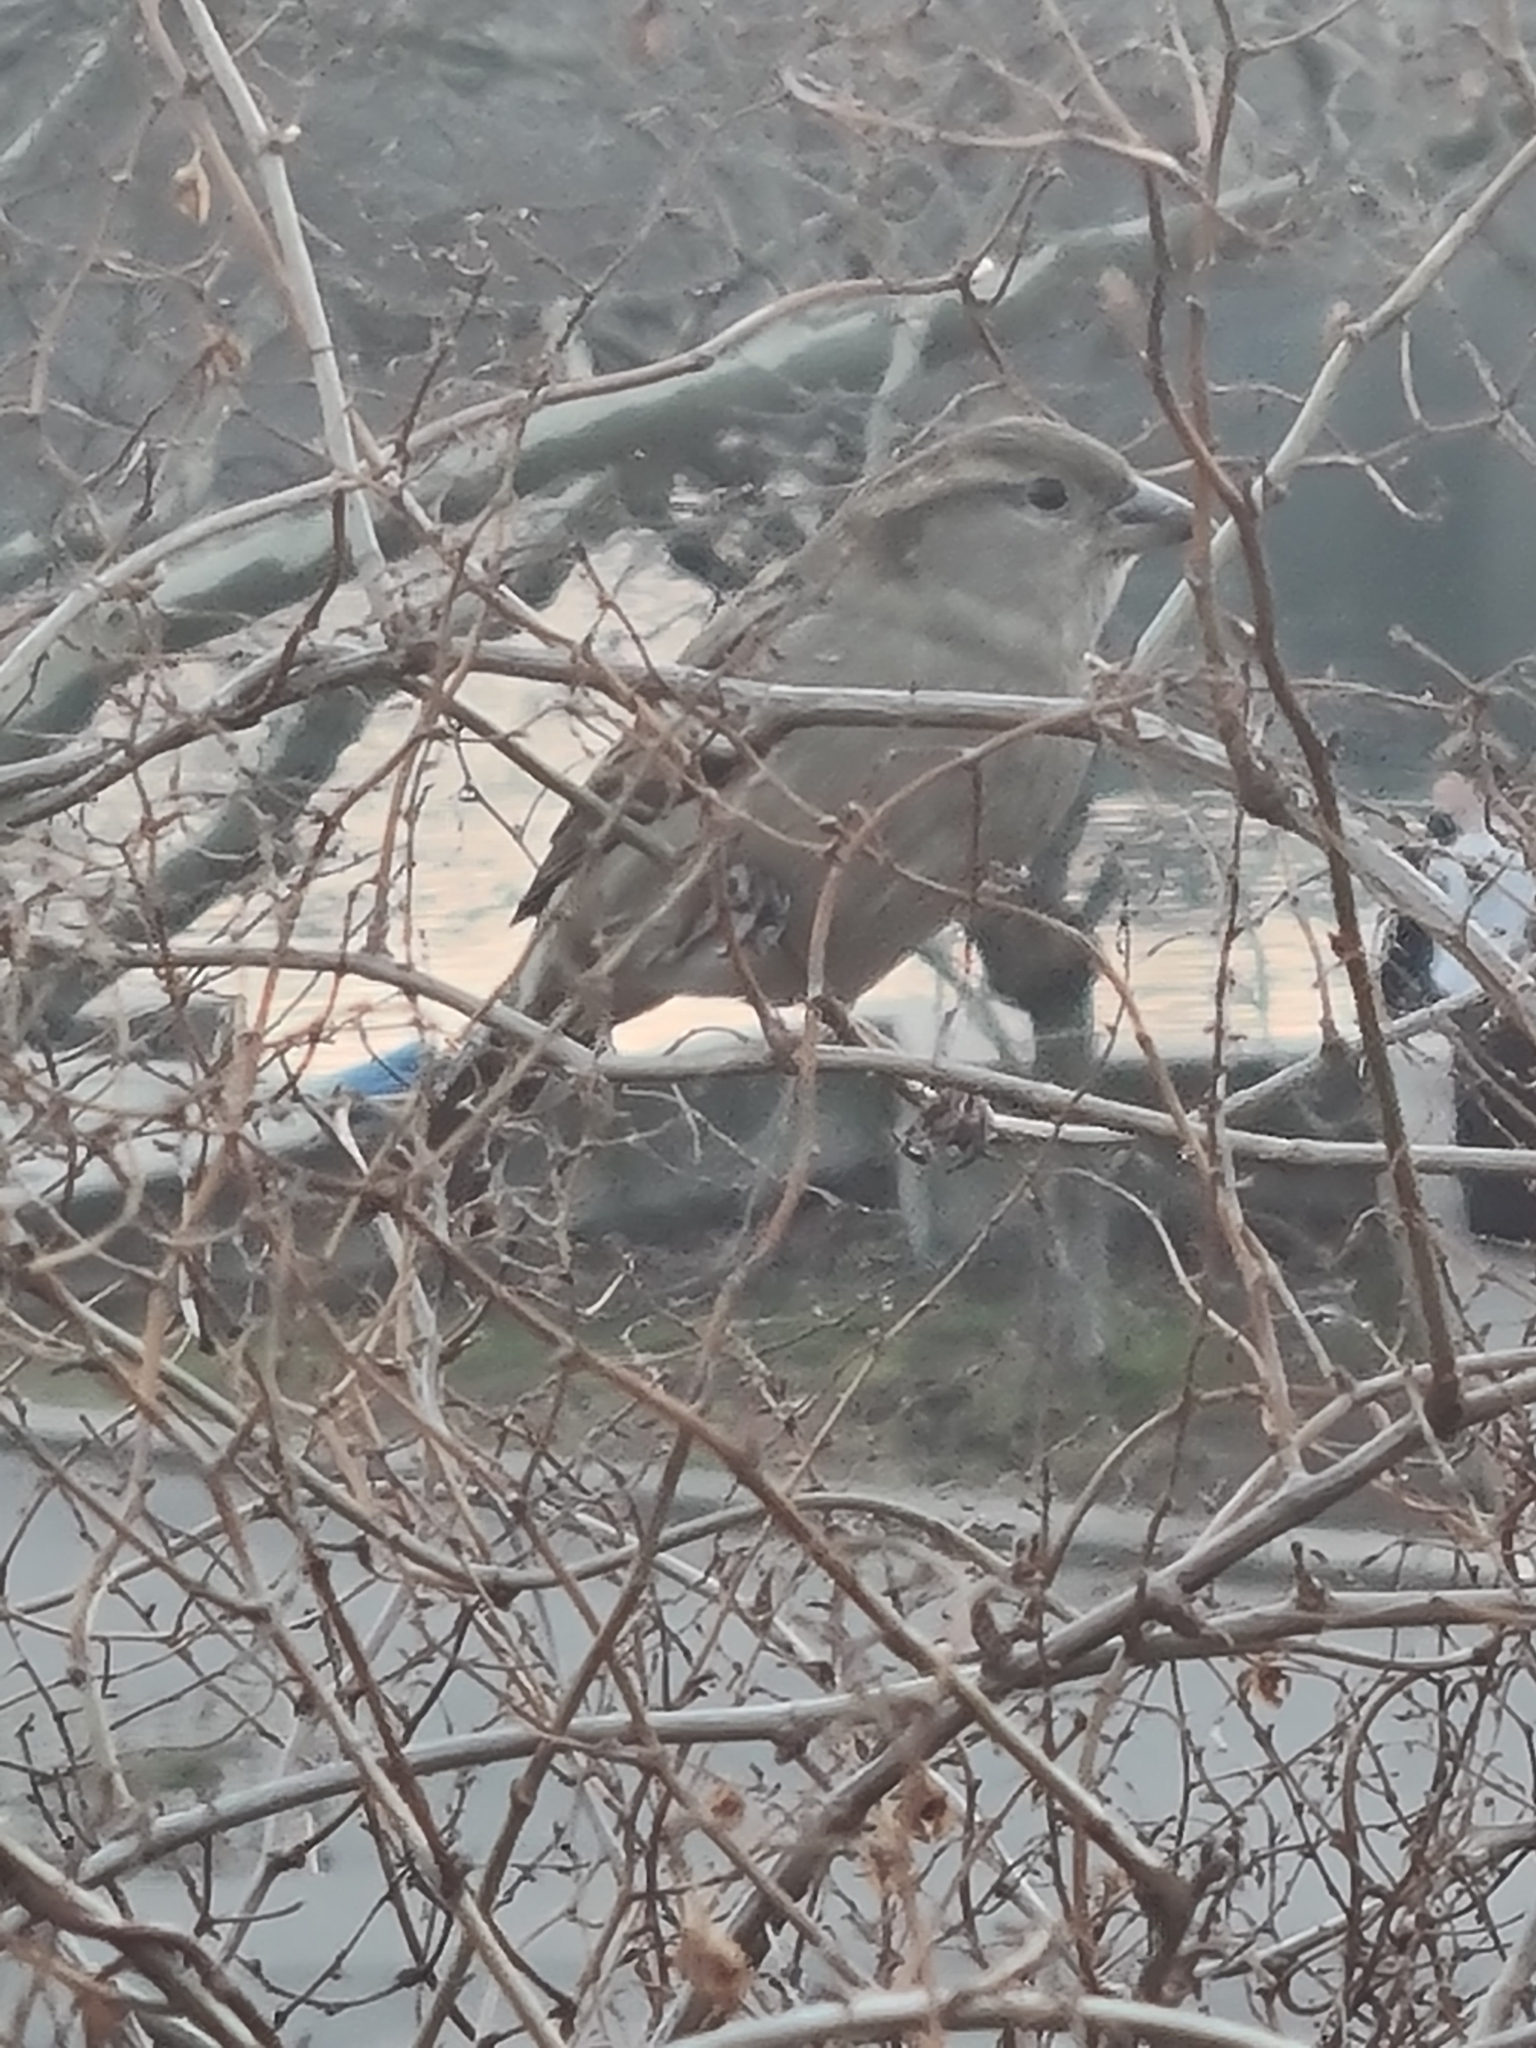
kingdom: Animalia
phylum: Chordata
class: Aves
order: Passeriformes
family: Passeridae
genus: Passer
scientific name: Passer domesticus
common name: House sparrow
